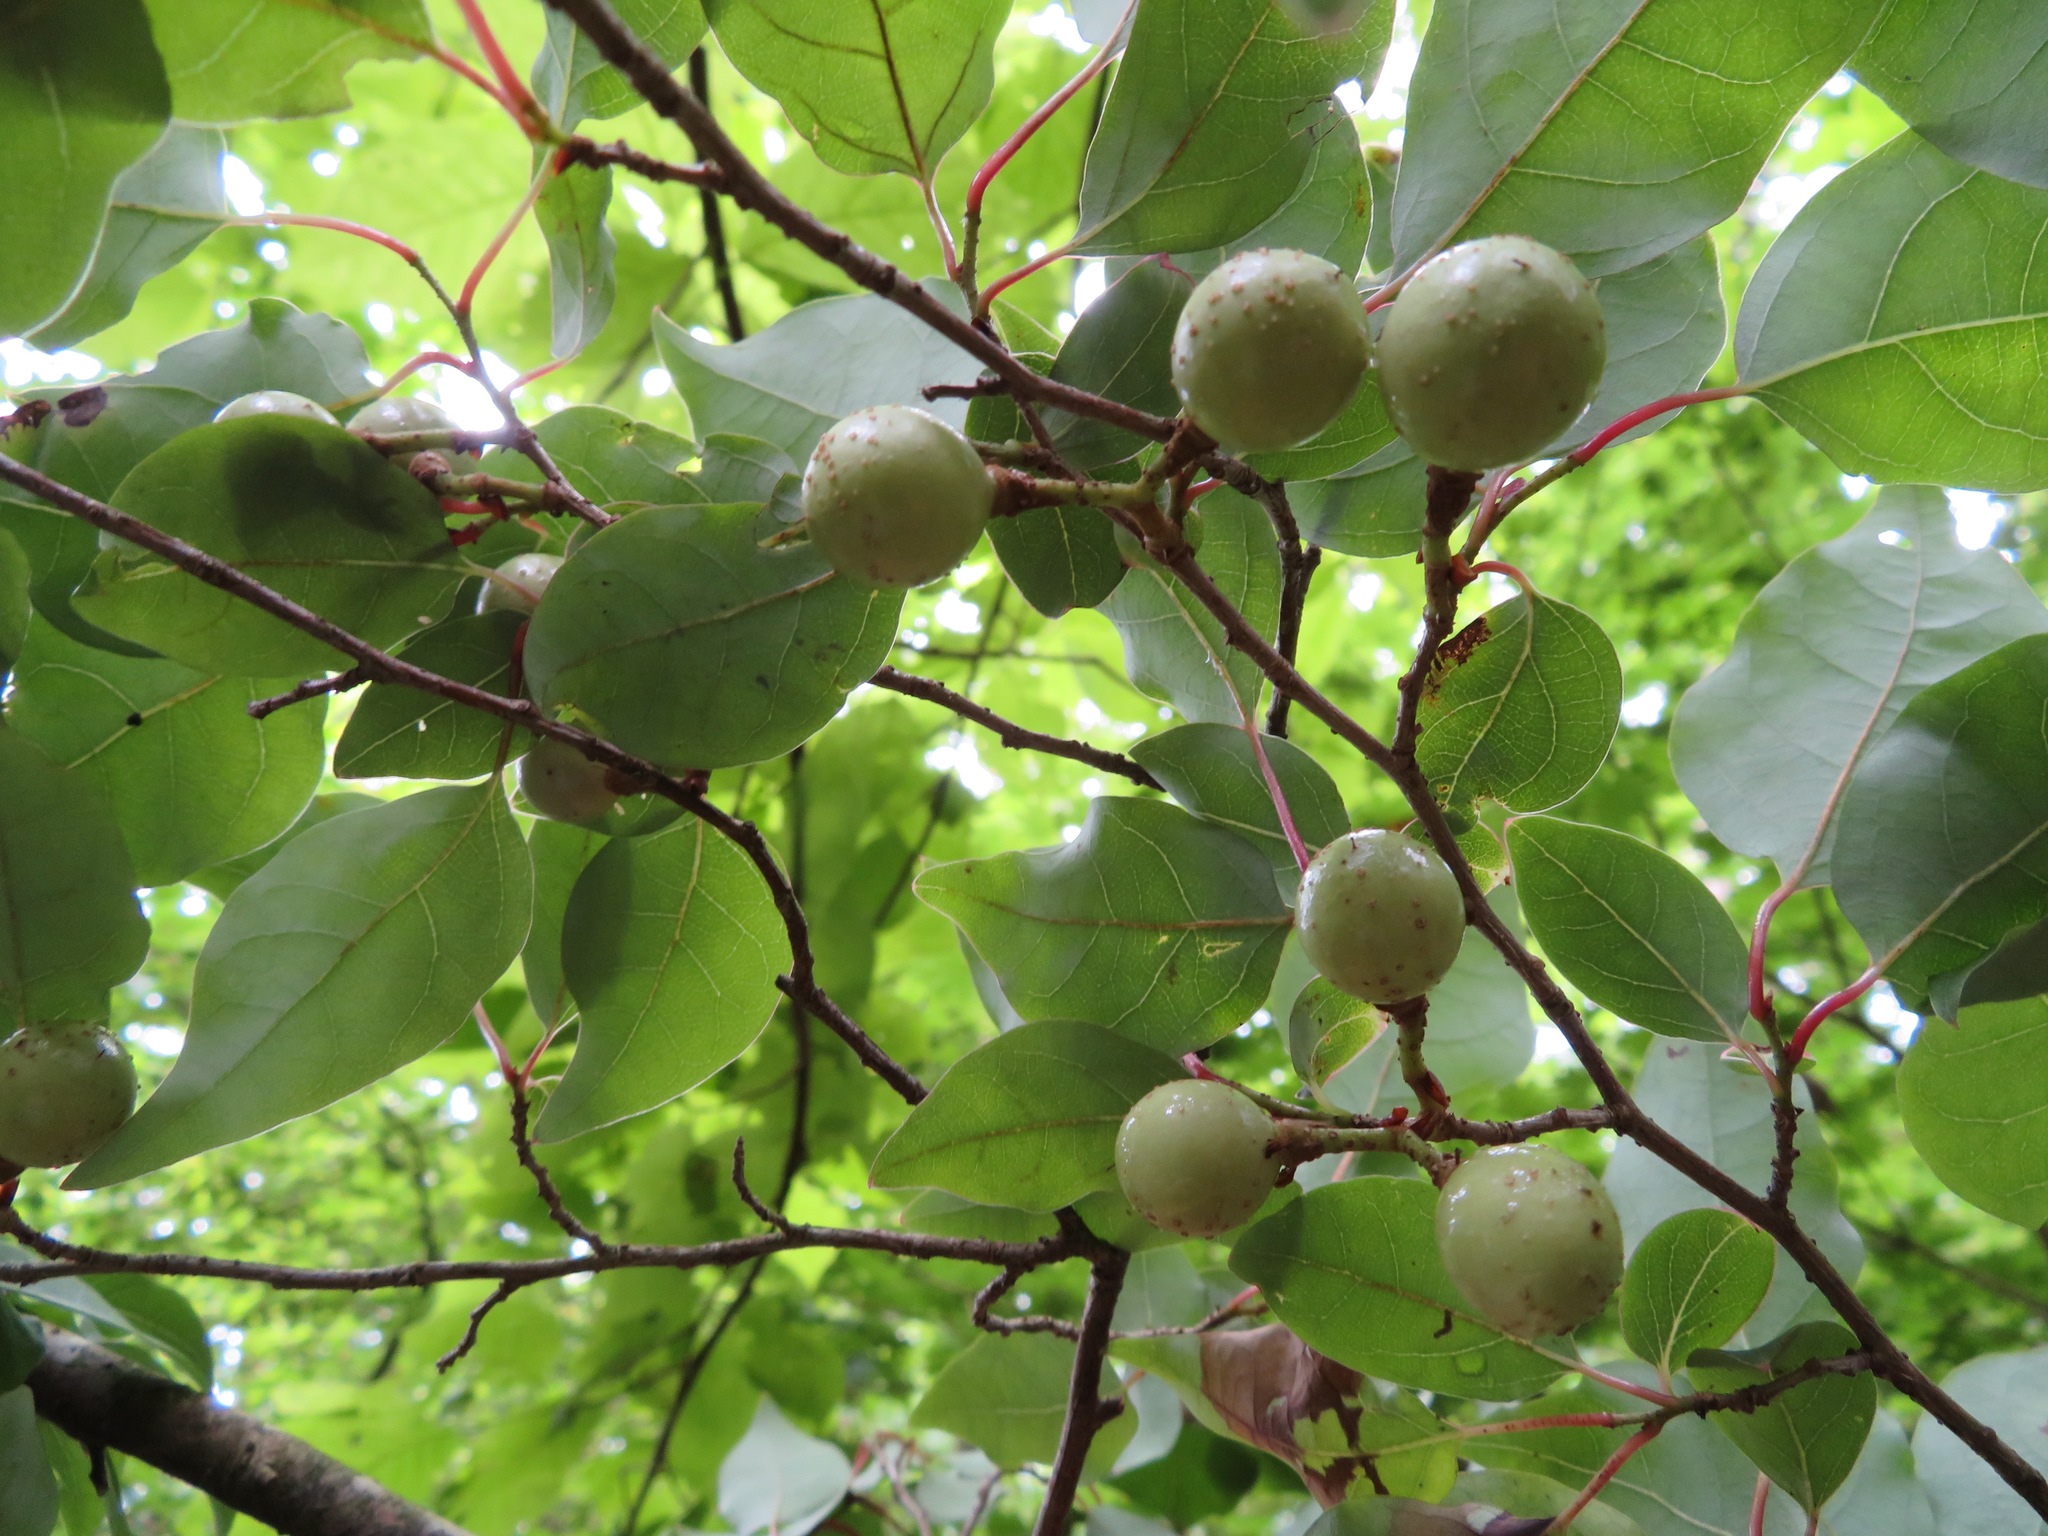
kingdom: Plantae
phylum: Tracheophyta
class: Magnoliopsida
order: Laurales
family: Lauraceae
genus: Lindera
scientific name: Lindera praecox
